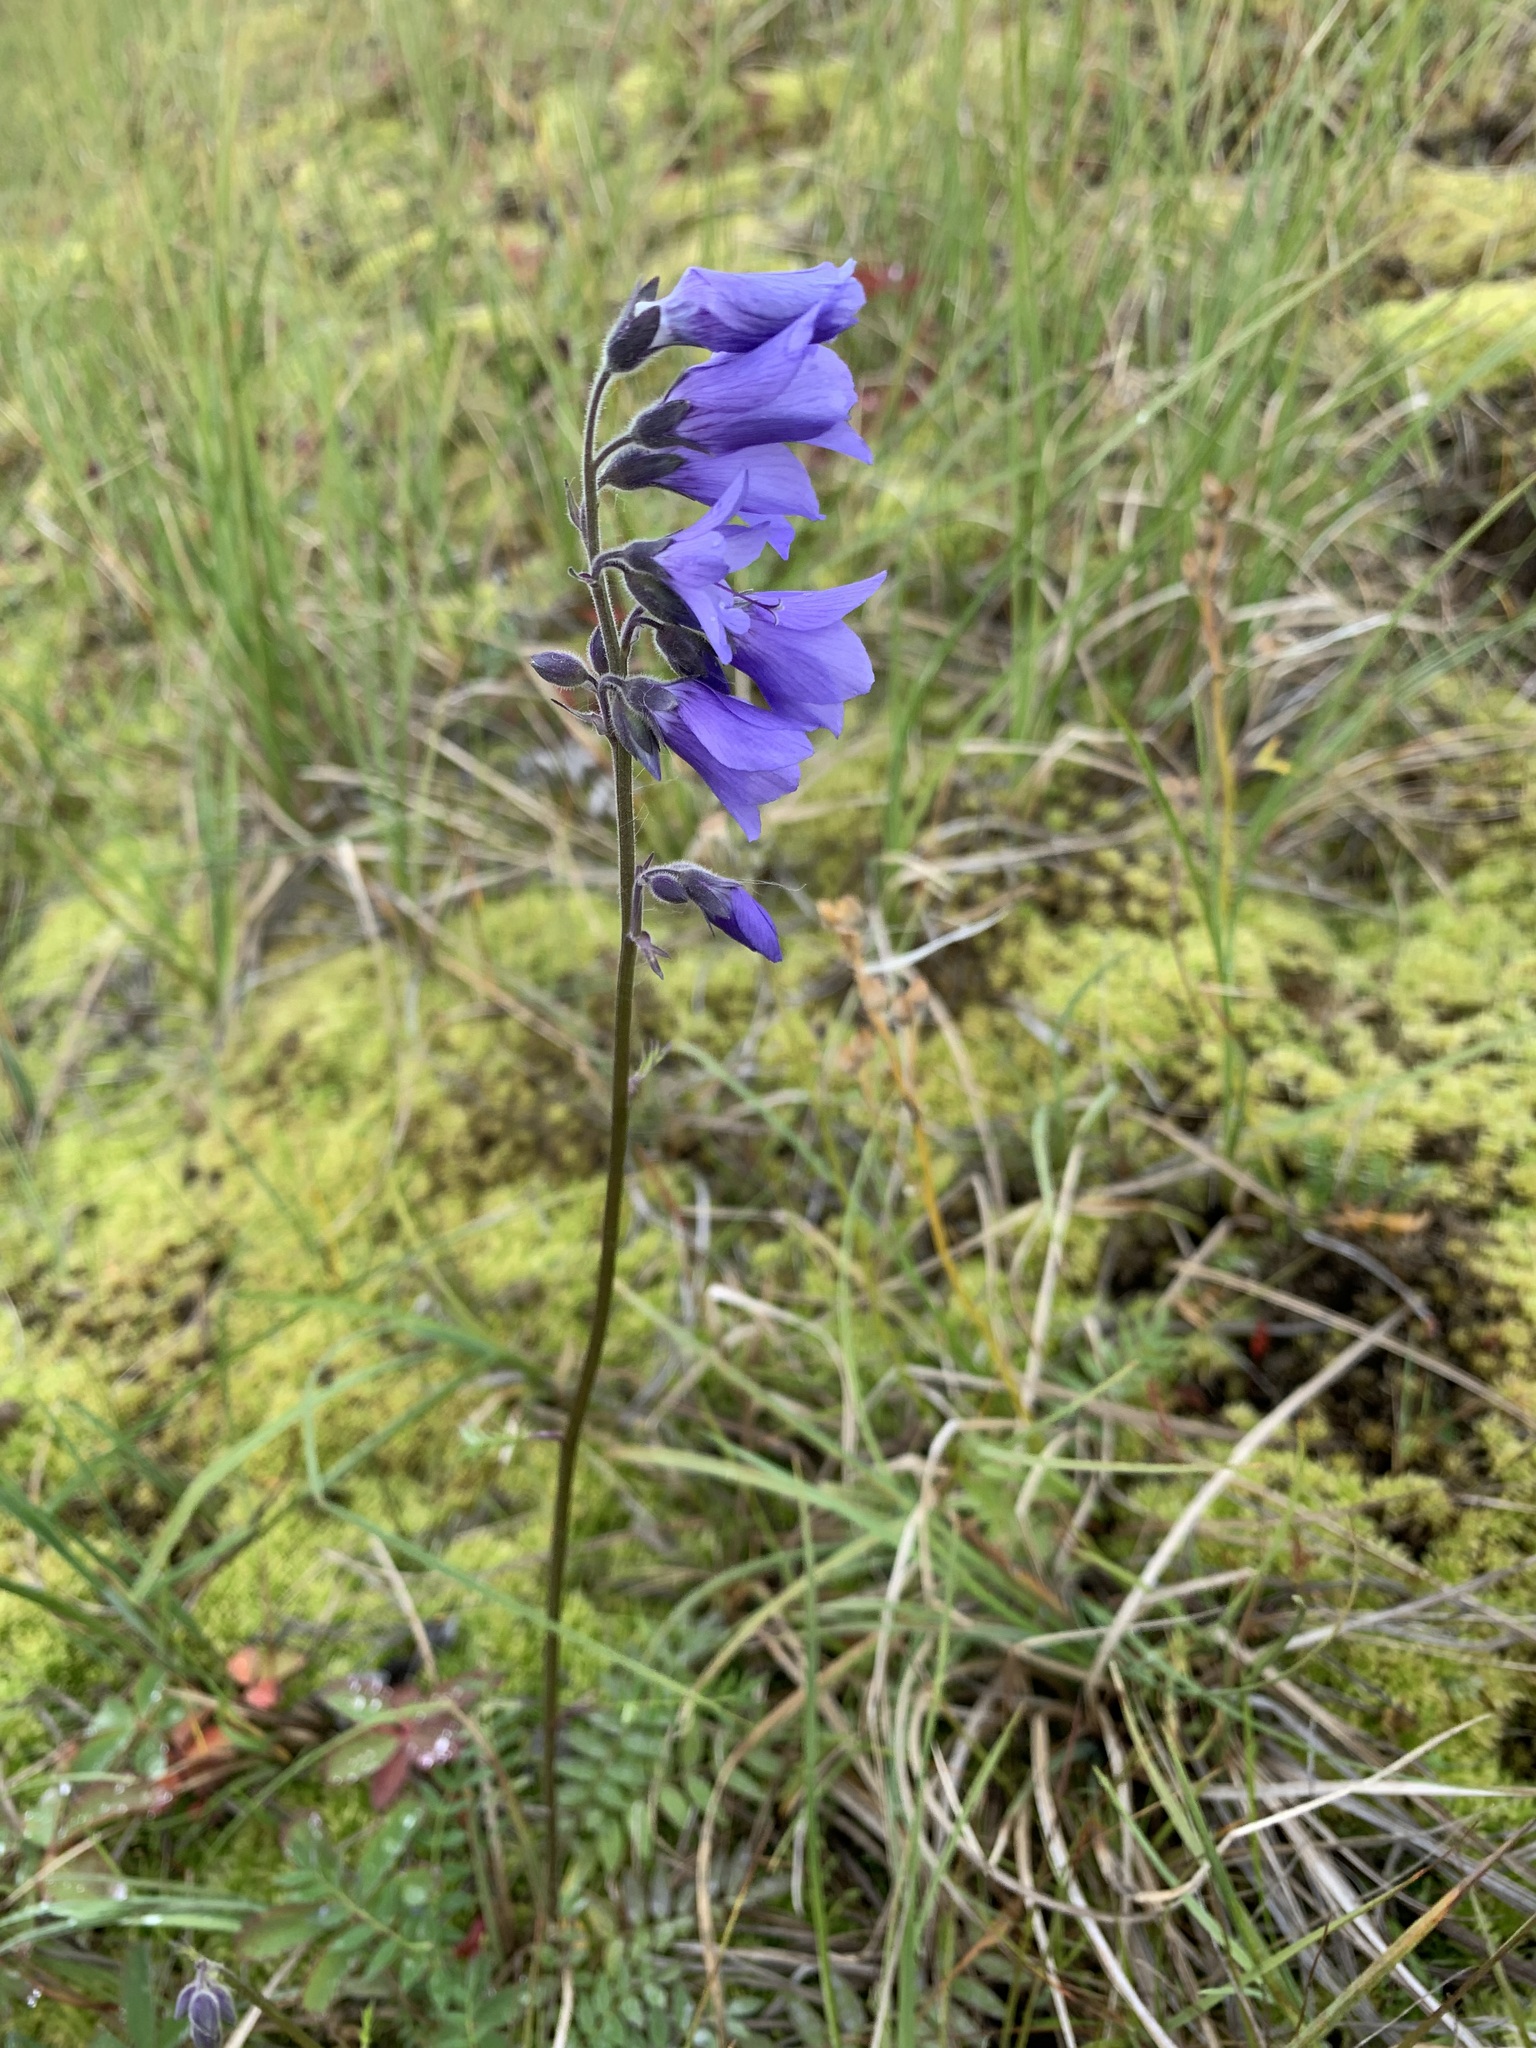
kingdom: Plantae
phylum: Tracheophyta
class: Magnoliopsida
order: Ericales
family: Polemoniaceae
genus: Polemonium
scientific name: Polemonium acutiflorum
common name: Tall jacob's-ladder
